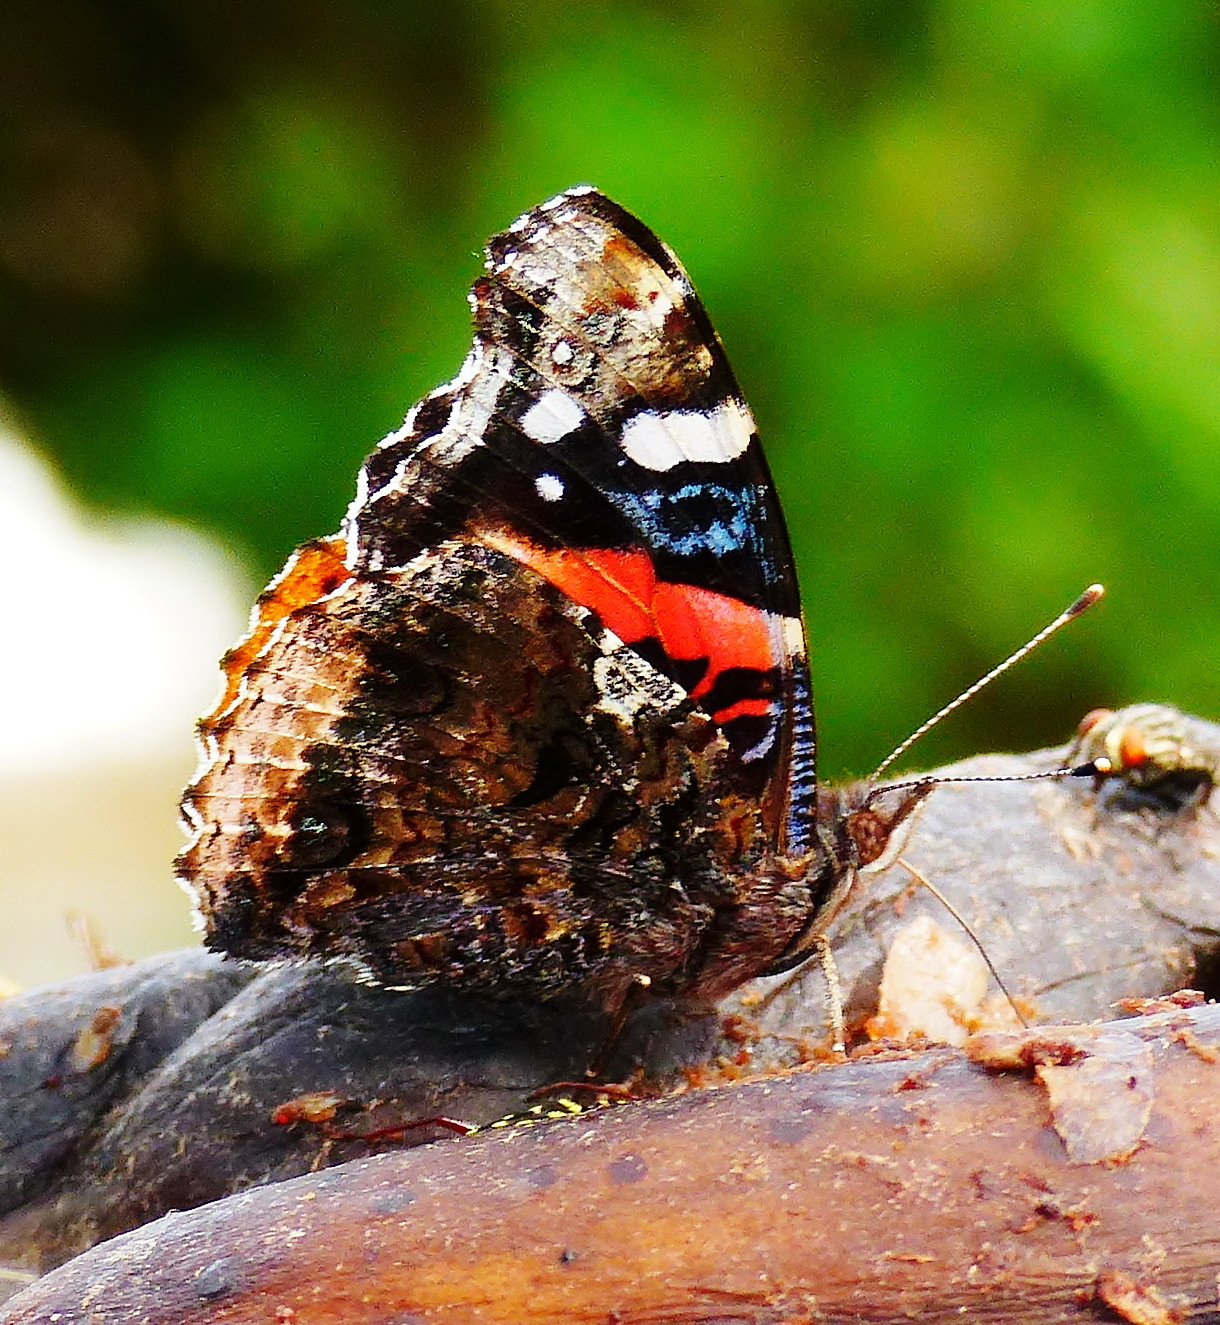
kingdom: Animalia
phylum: Arthropoda
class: Insecta
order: Lepidoptera
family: Nymphalidae
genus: Vanessa
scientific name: Vanessa atalanta
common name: Red admiral
